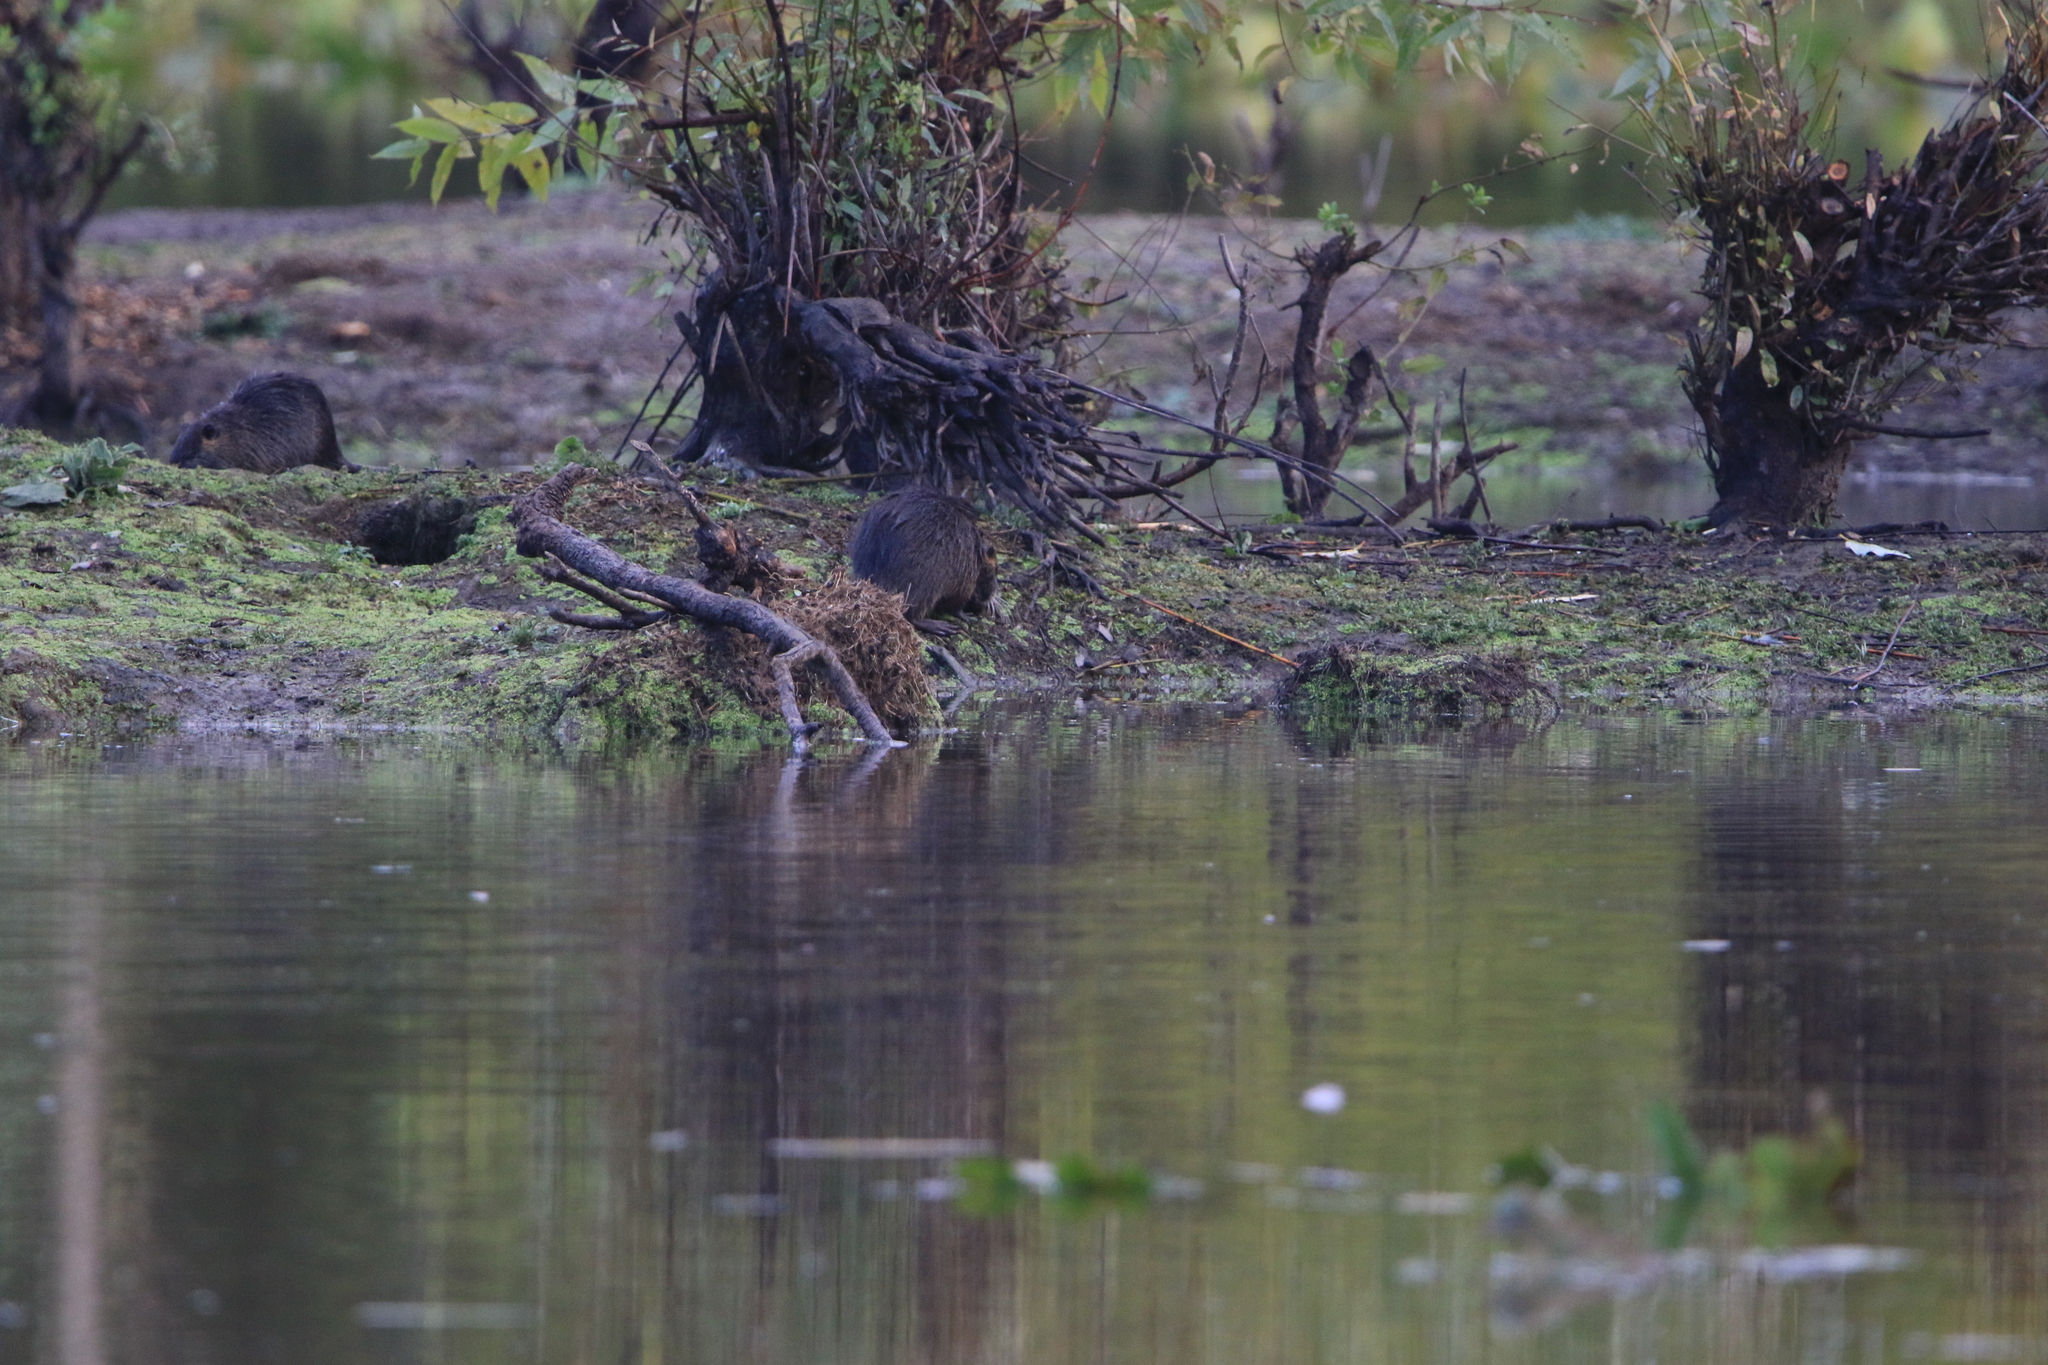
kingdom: Animalia
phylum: Chordata
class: Mammalia
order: Rodentia
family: Myocastoridae
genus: Myocastor
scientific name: Myocastor coypus
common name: Coypu
